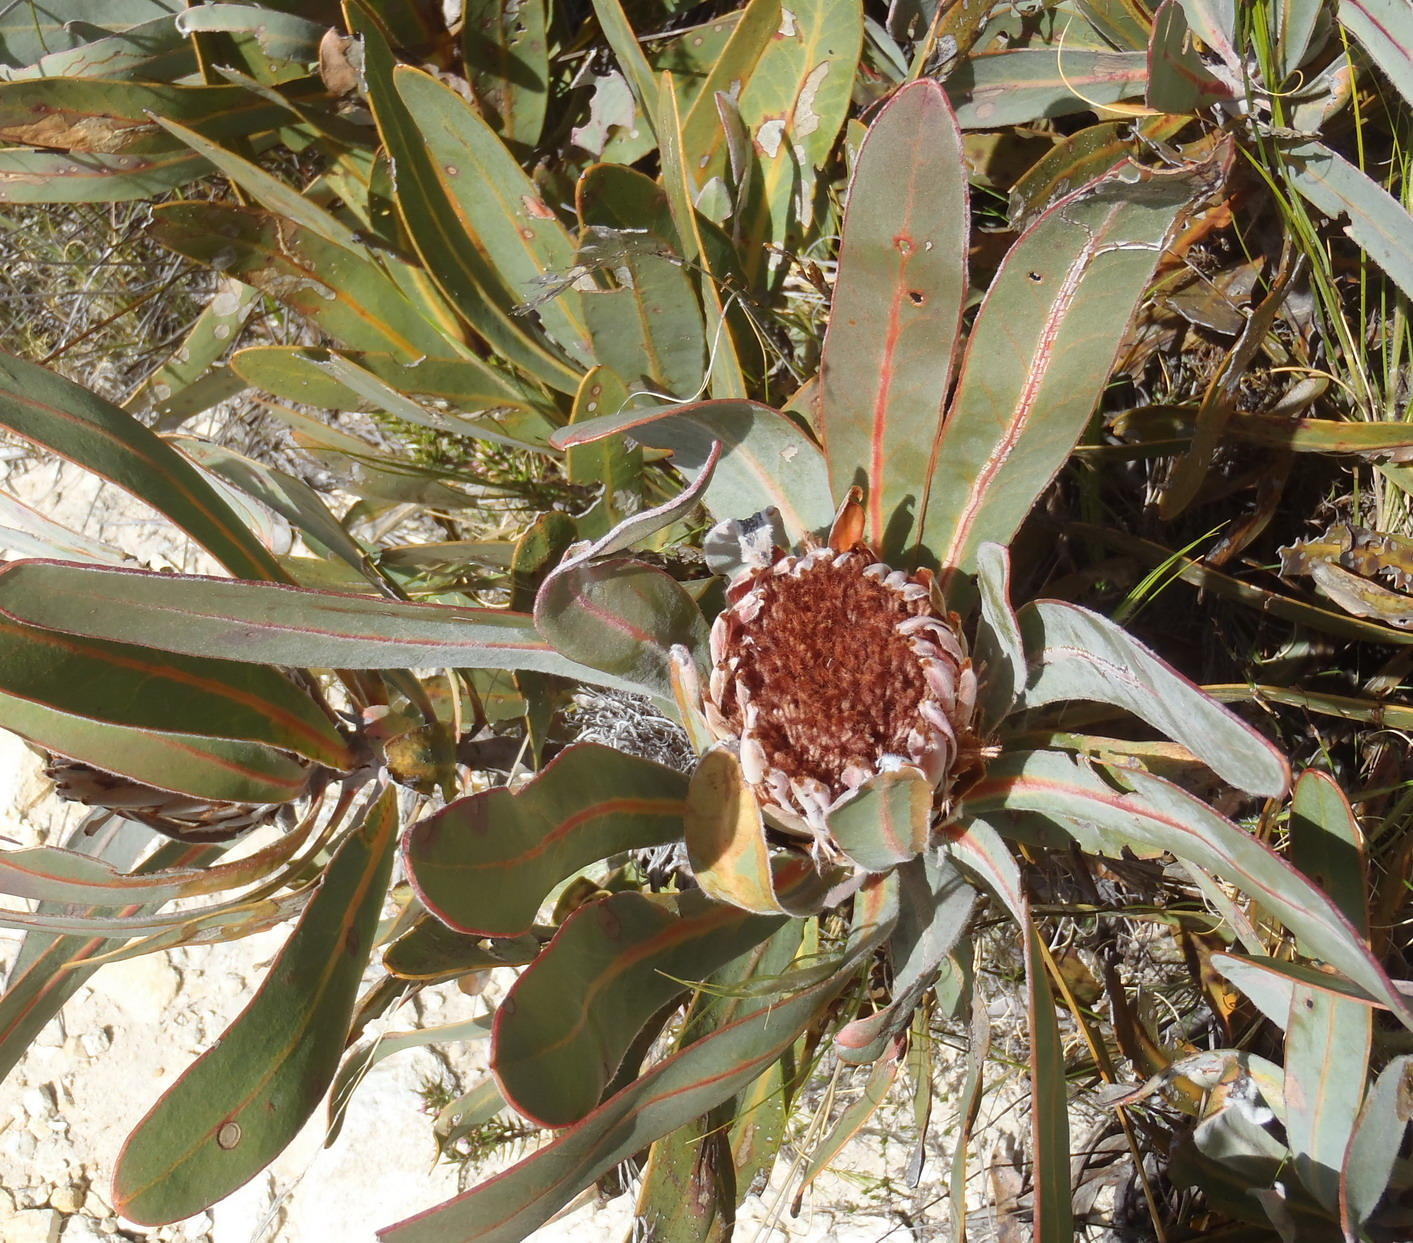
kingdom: Plantae
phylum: Tracheophyta
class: Magnoliopsida
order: Proteales
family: Proteaceae
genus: Protea
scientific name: Protea lorifolia
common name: Strap-leaved protea
